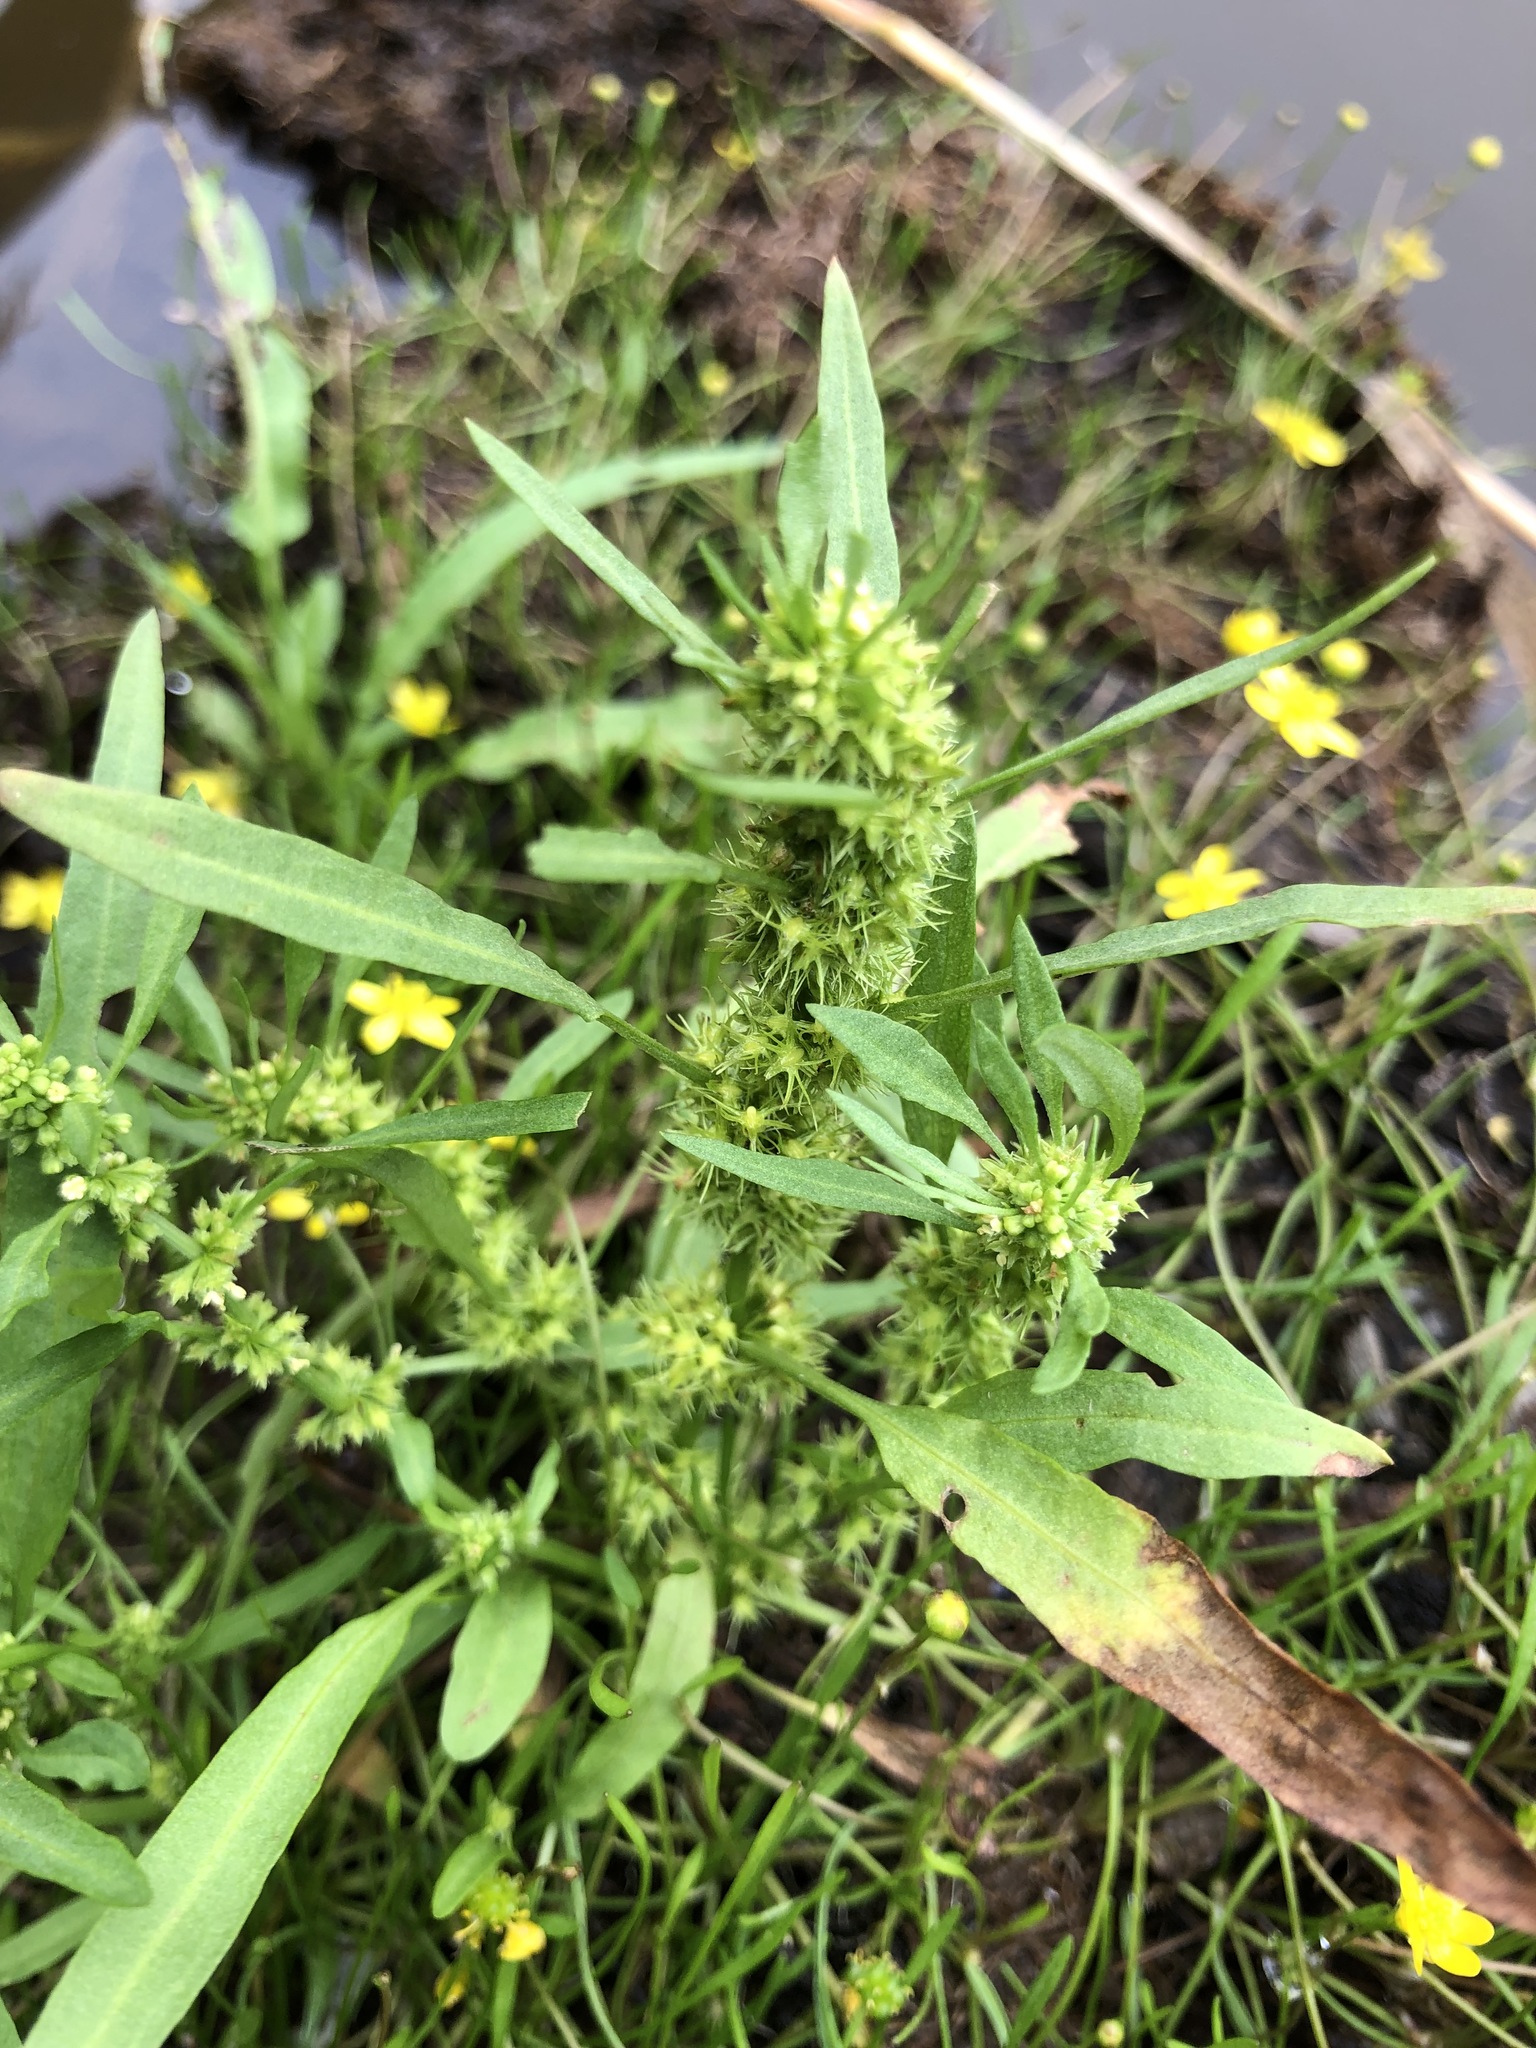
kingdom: Plantae
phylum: Tracheophyta
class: Magnoliopsida
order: Caryophyllales
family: Polygonaceae
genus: Rumex
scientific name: Rumex maritimus
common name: Golden dock
